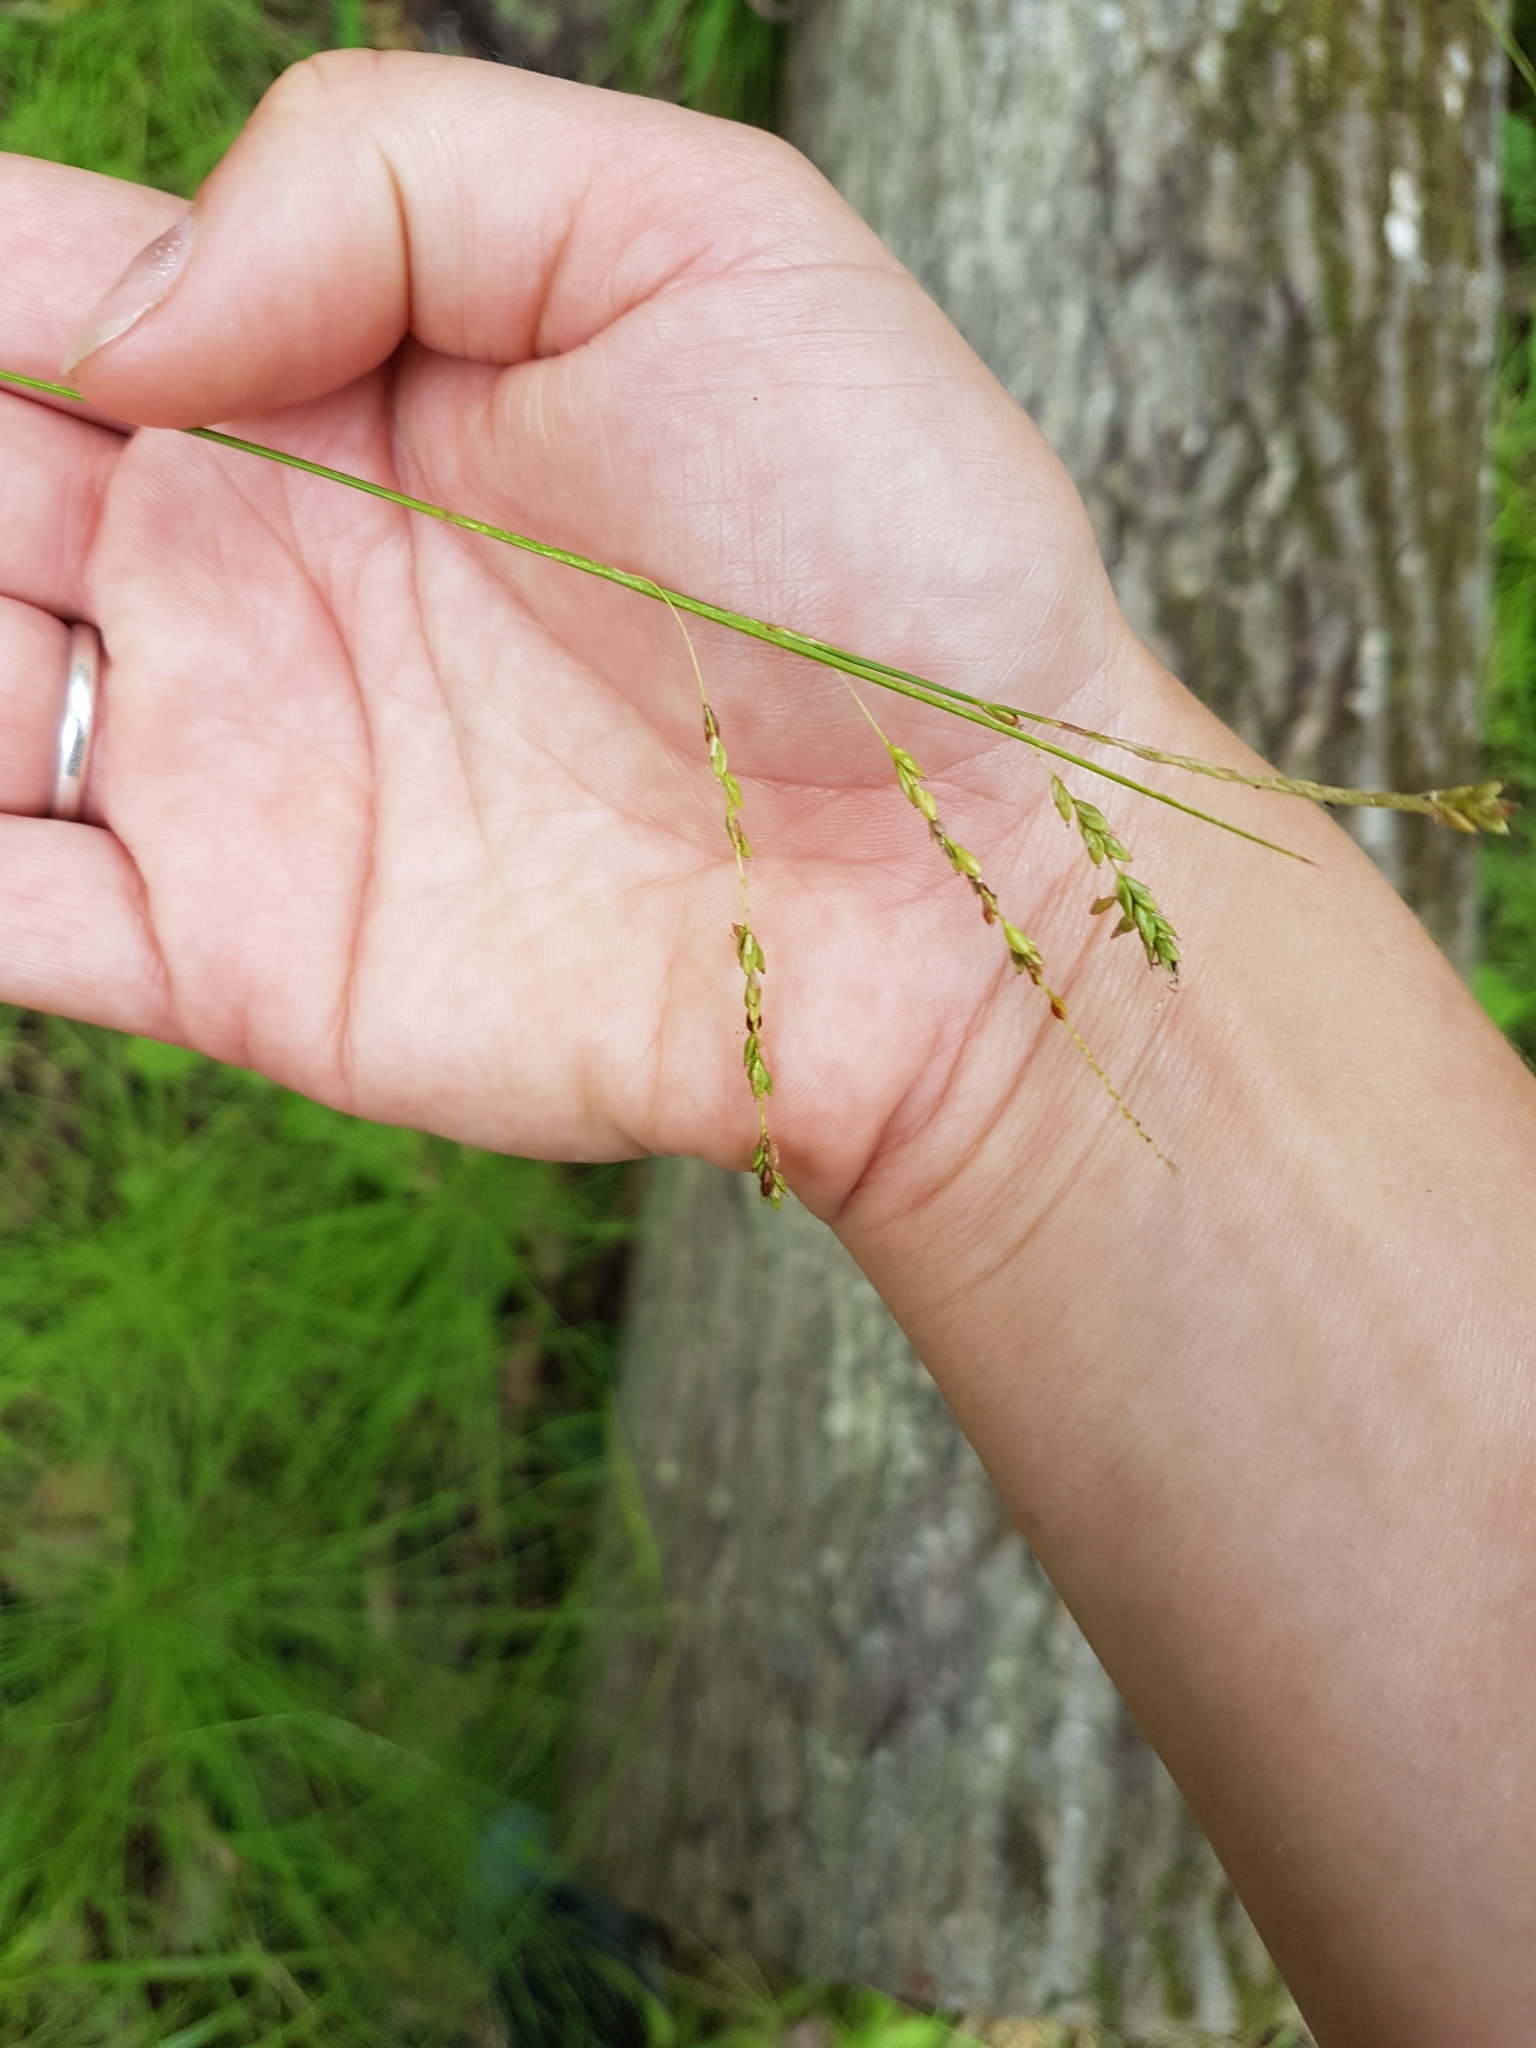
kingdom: Plantae
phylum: Tracheophyta
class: Liliopsida
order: Poales
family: Cyperaceae
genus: Carex
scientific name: Carex gracillima
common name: Graceful sedge
